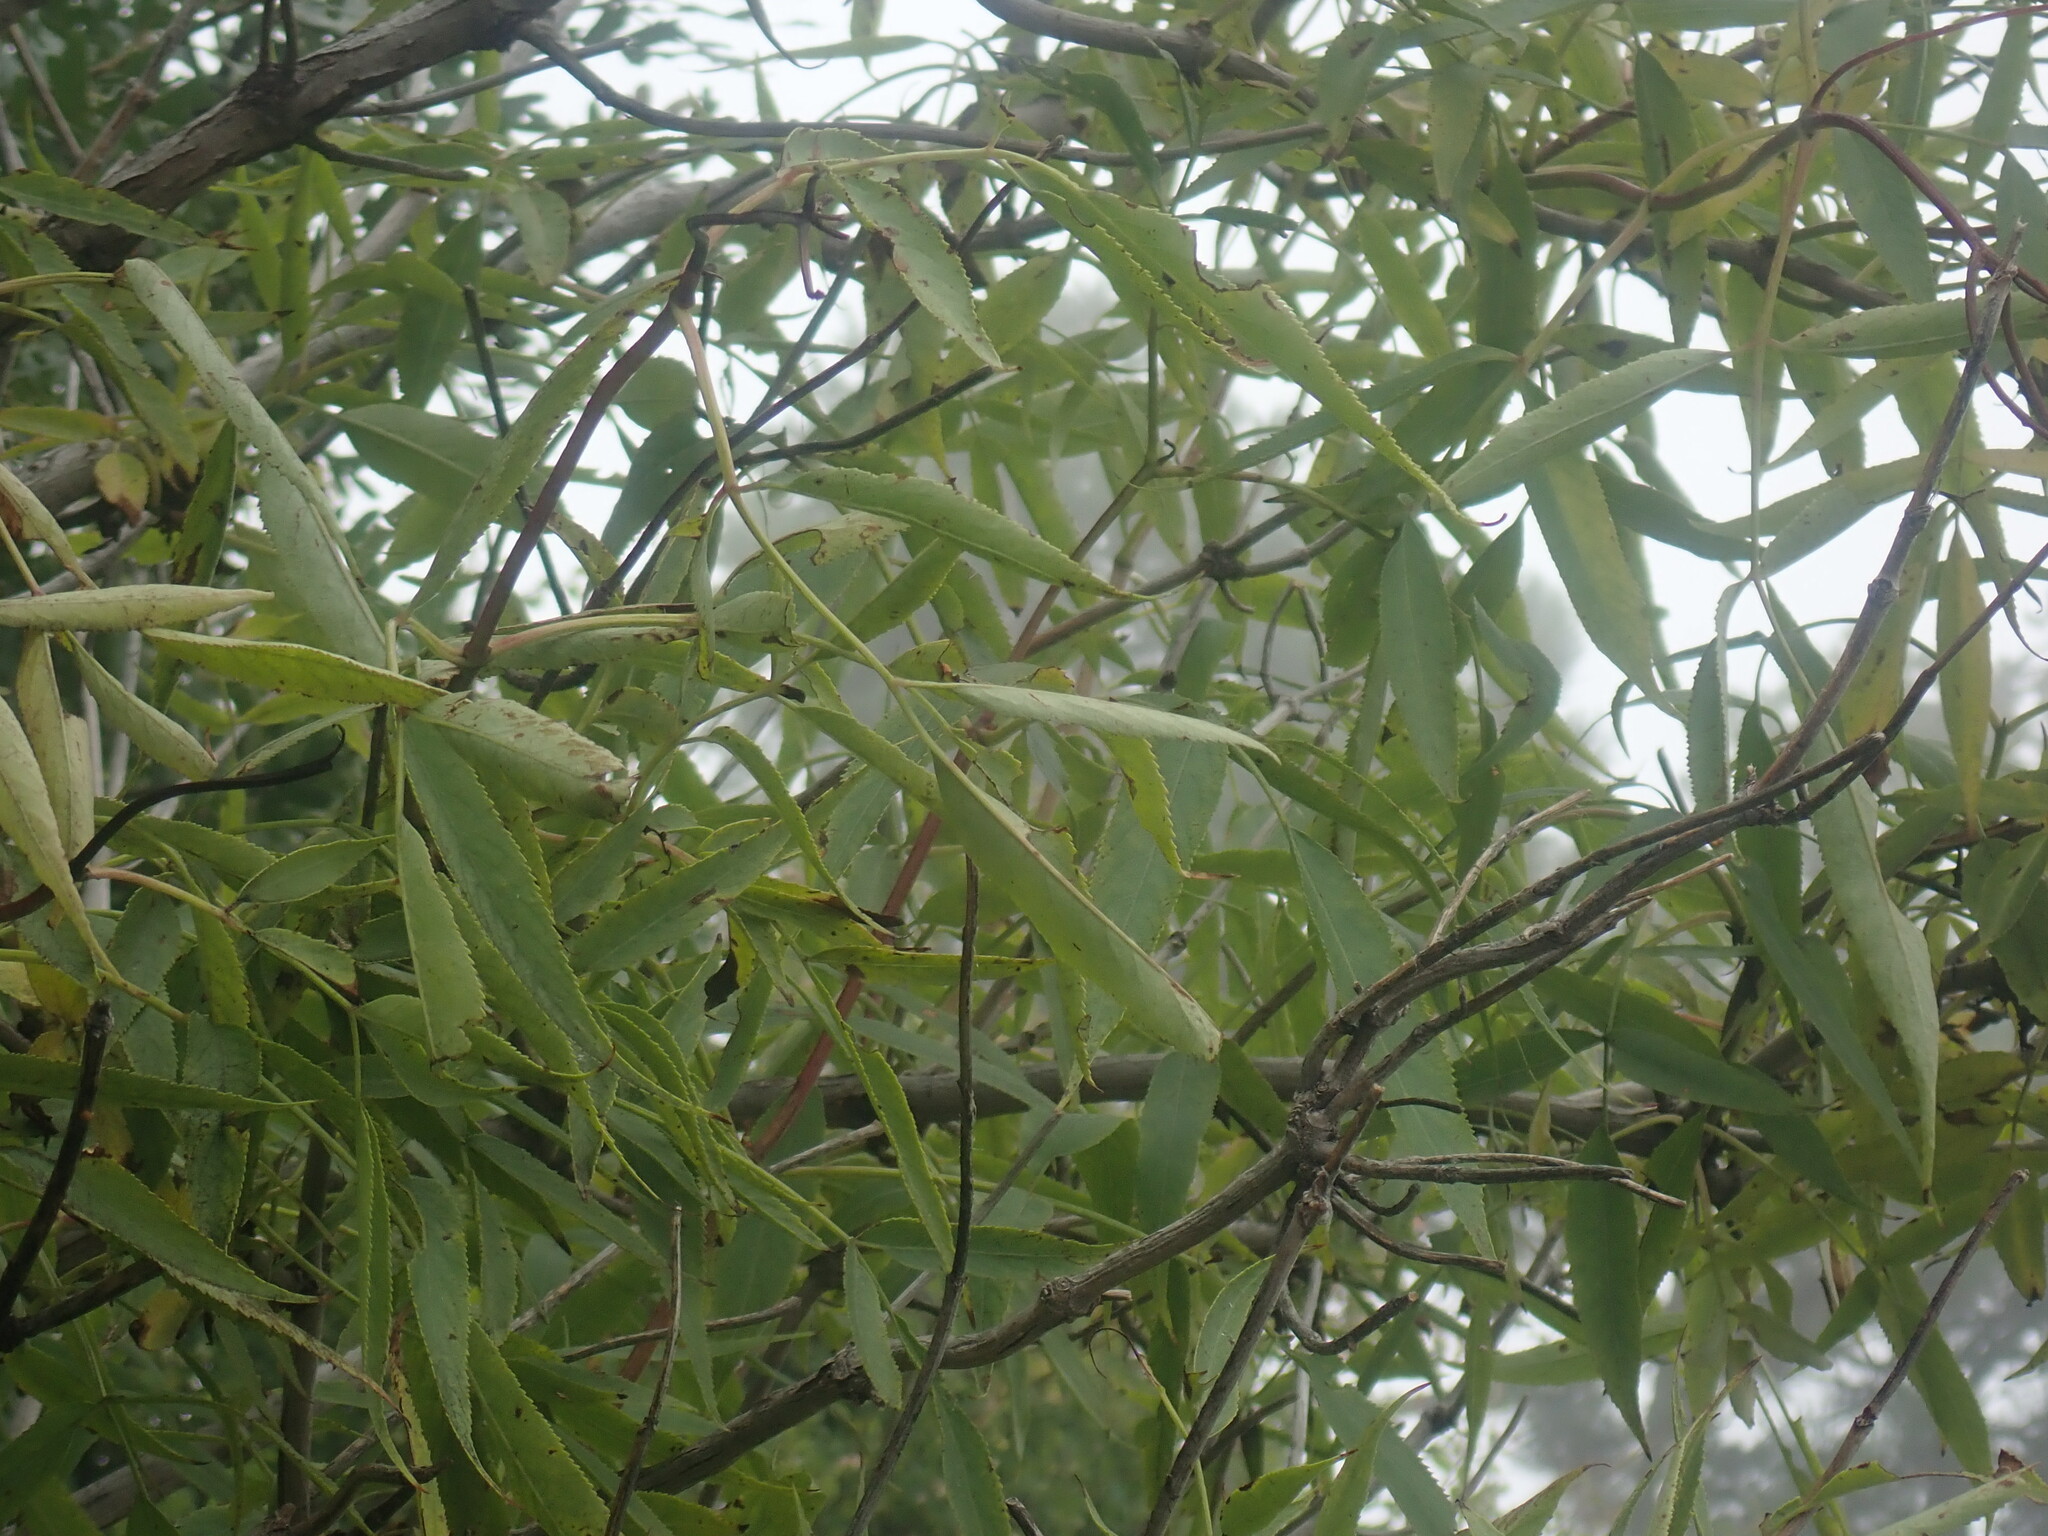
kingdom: Plantae
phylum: Tracheophyta
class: Magnoliopsida
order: Dipsacales
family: Viburnaceae
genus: Sambucus
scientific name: Sambucus cerulea
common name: Blue elder
